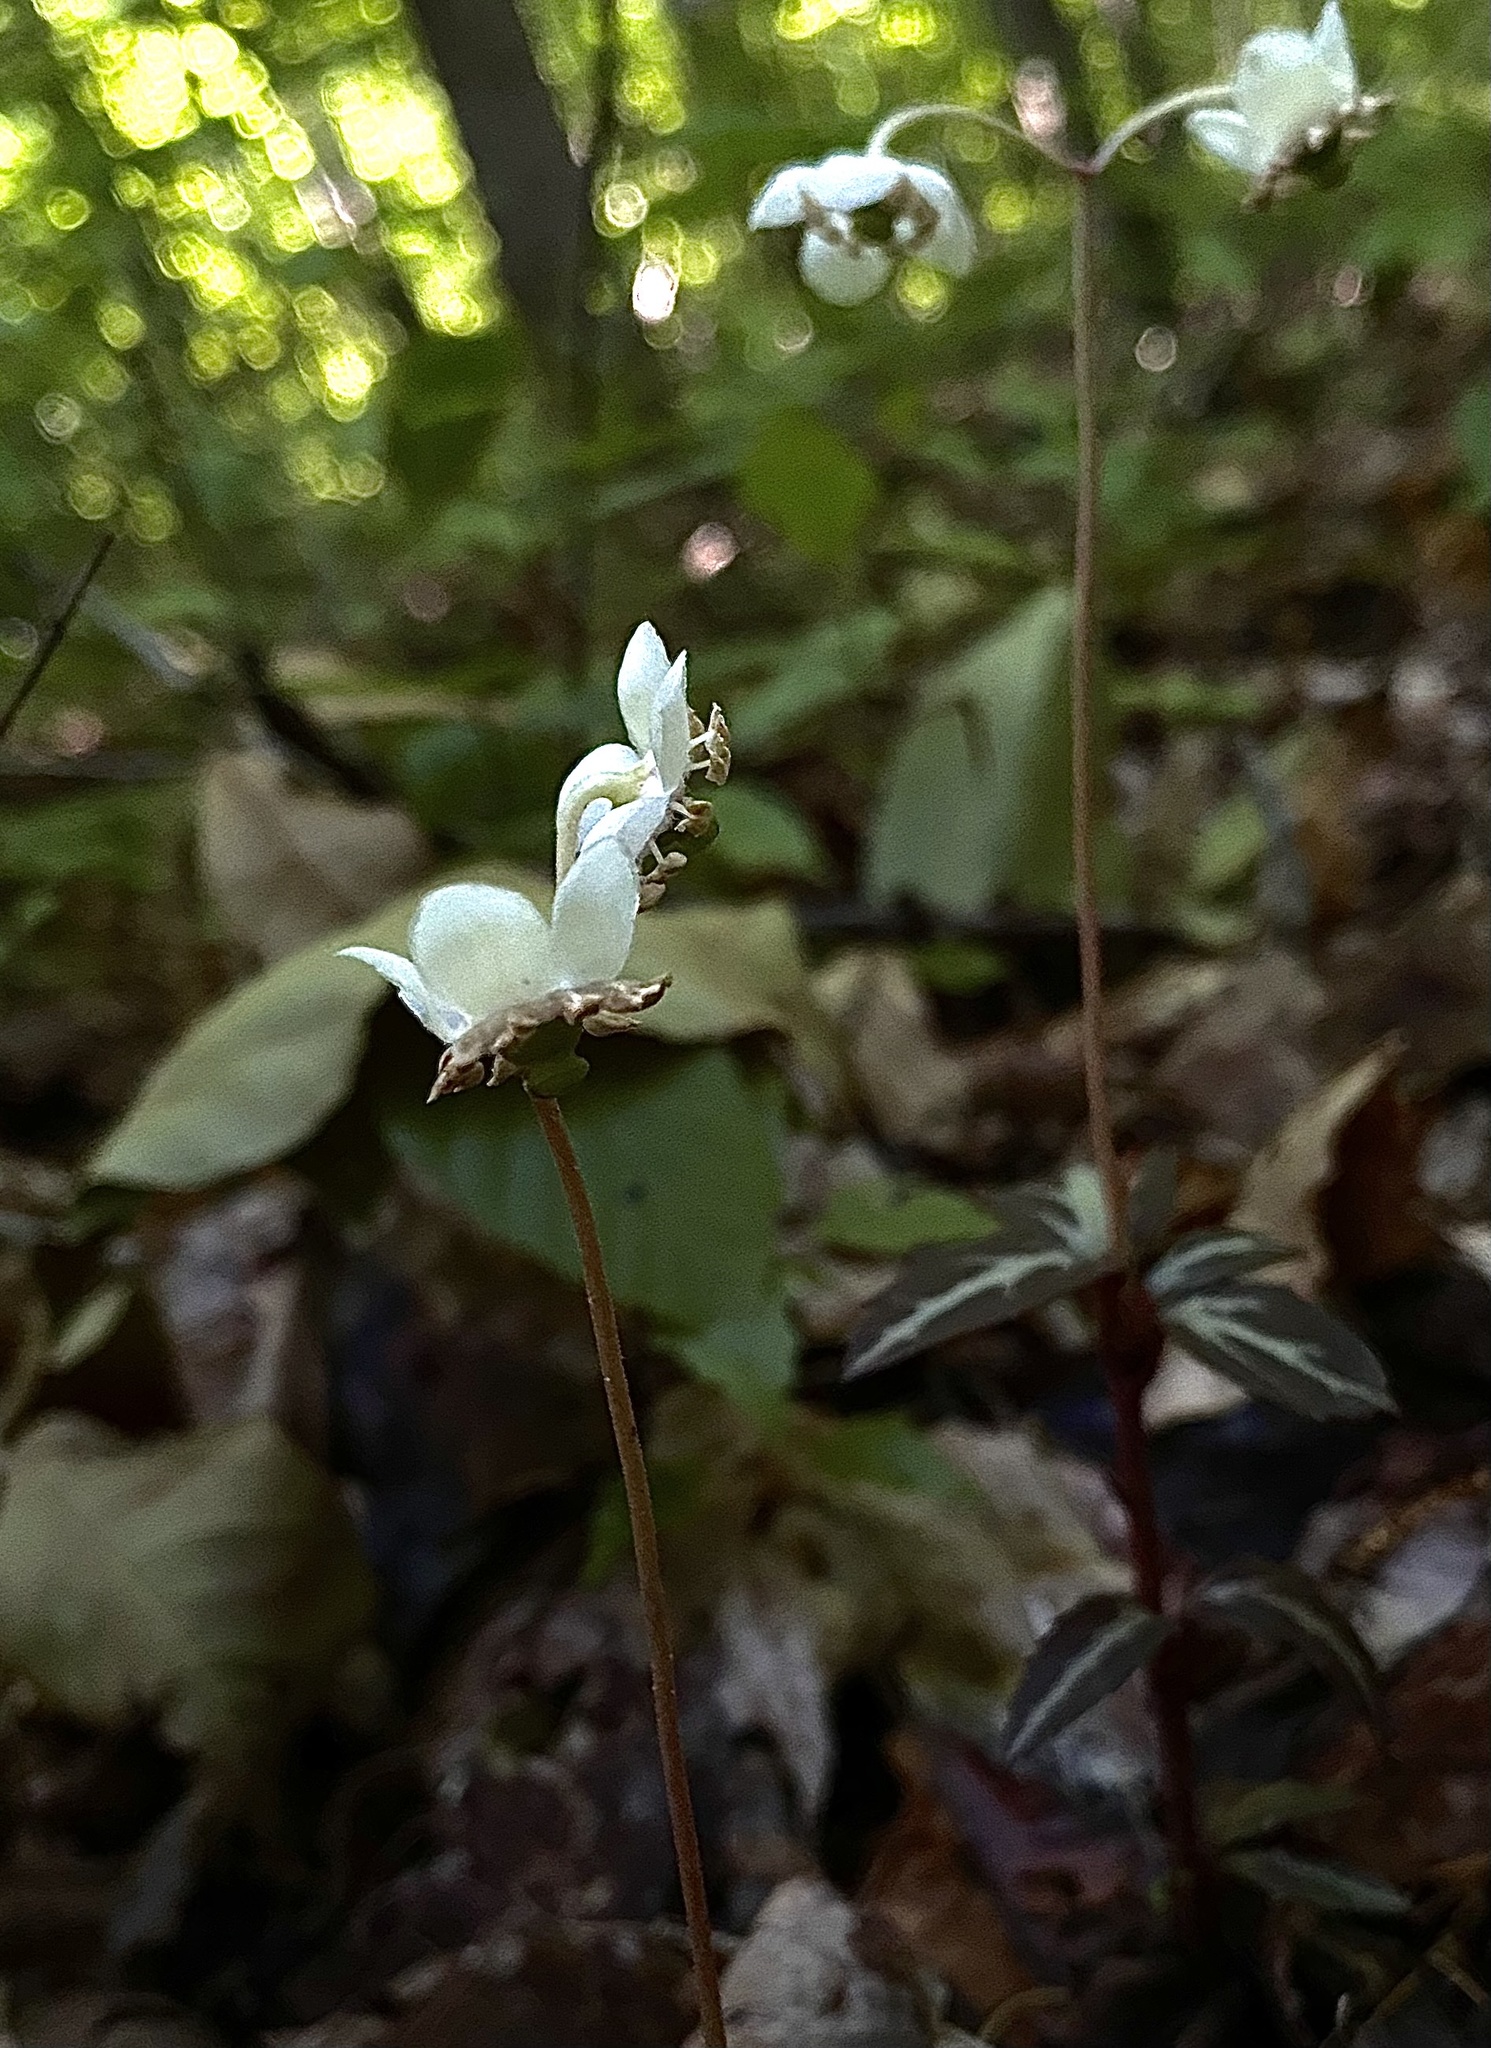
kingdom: Plantae
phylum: Tracheophyta
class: Magnoliopsida
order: Ericales
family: Ericaceae
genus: Chimaphila
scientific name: Chimaphila maculata
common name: Spotted pipsissewa
